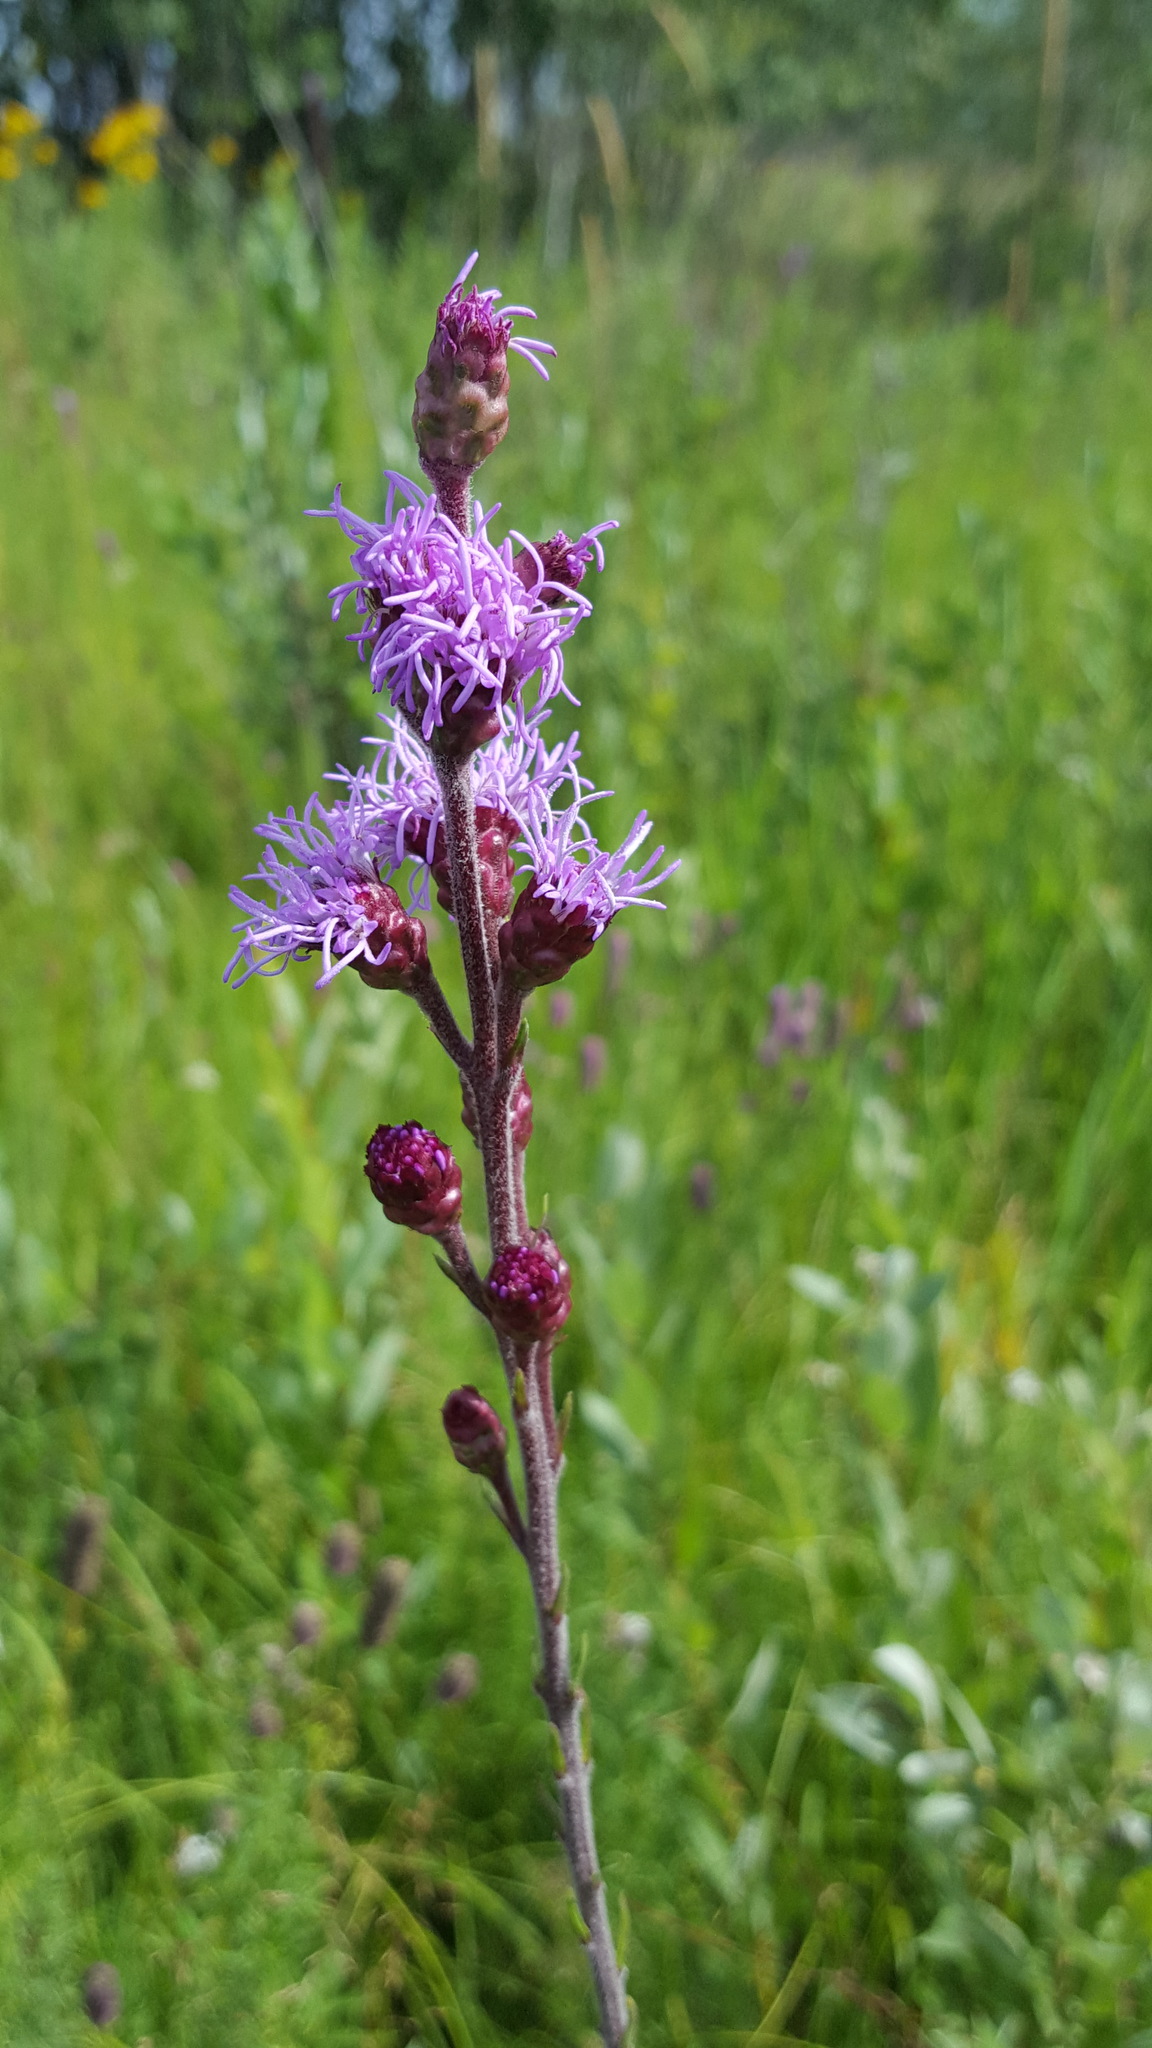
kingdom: Plantae
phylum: Tracheophyta
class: Magnoliopsida
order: Asterales
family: Asteraceae
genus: Liatris
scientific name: Liatris ligulistylis
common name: Northern plains gayfeather
